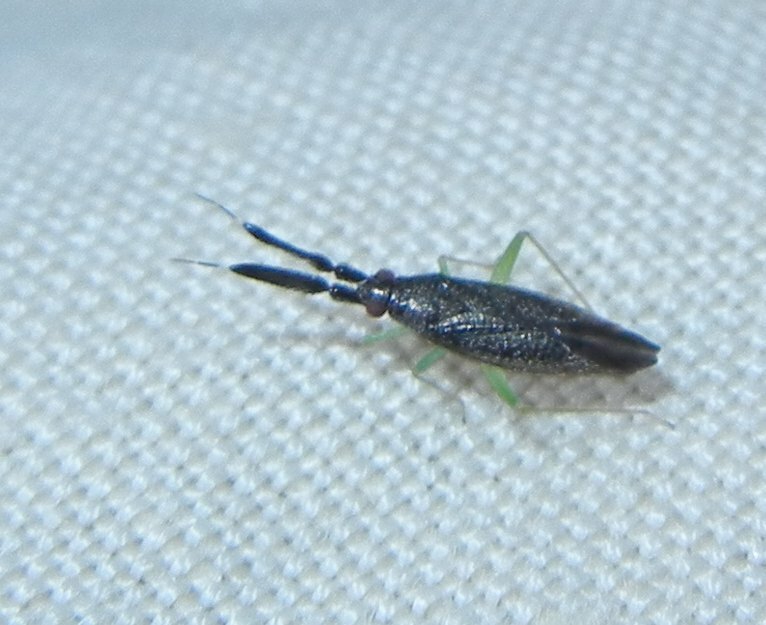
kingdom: Animalia
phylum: Arthropoda
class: Insecta
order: Hemiptera
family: Miridae
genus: Heterotoma
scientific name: Heterotoma planicornis
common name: Plant bug
